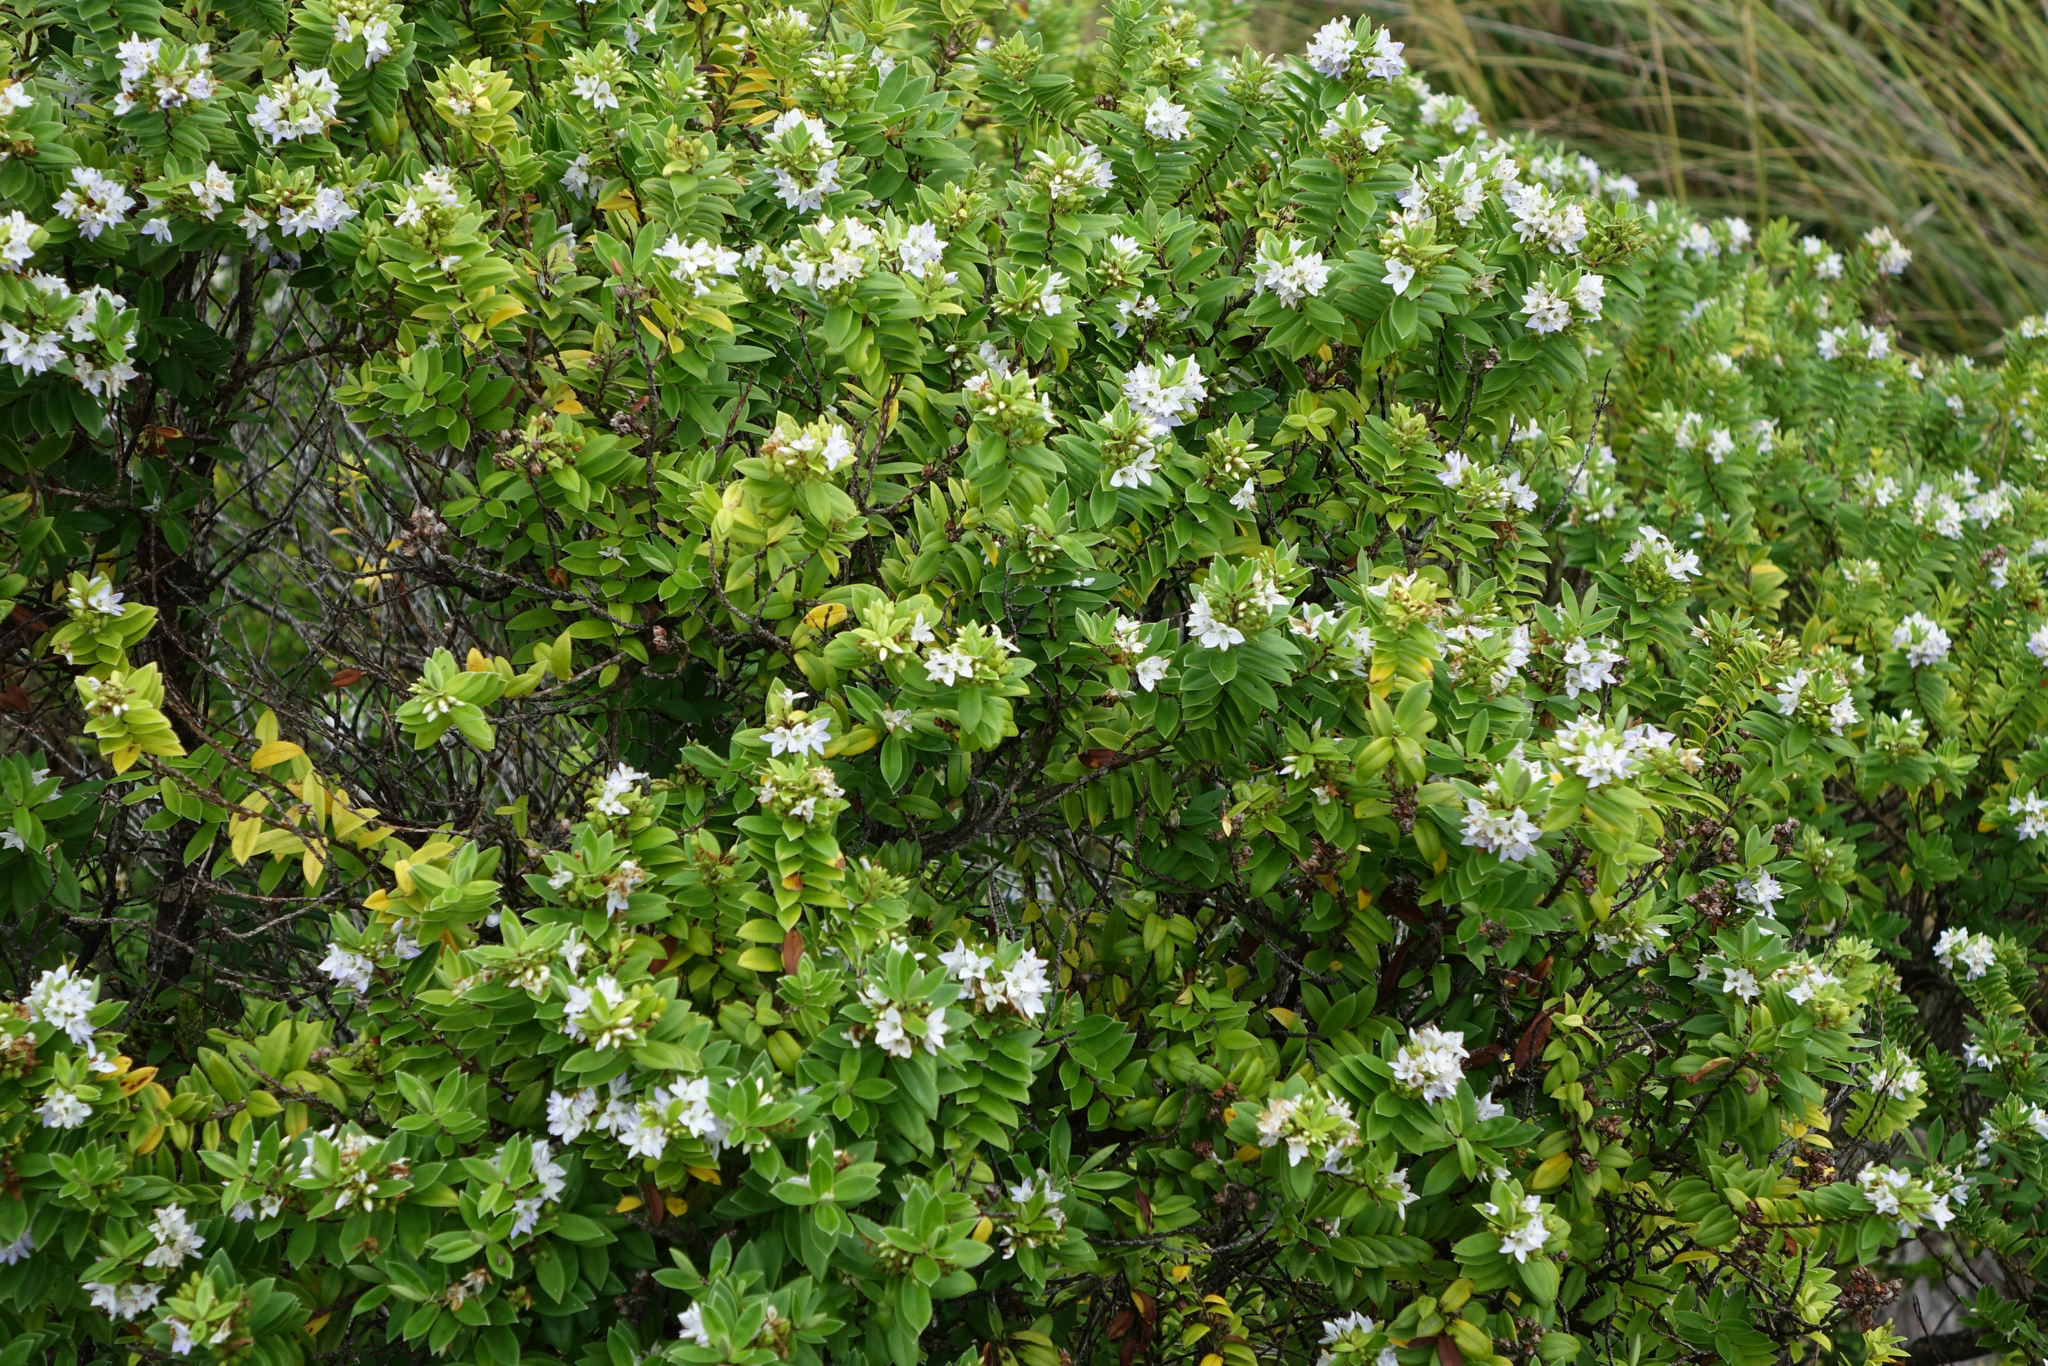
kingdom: Plantae
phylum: Tracheophyta
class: Magnoliopsida
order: Lamiales
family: Plantaginaceae
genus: Veronica
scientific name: Veronica elliptica
